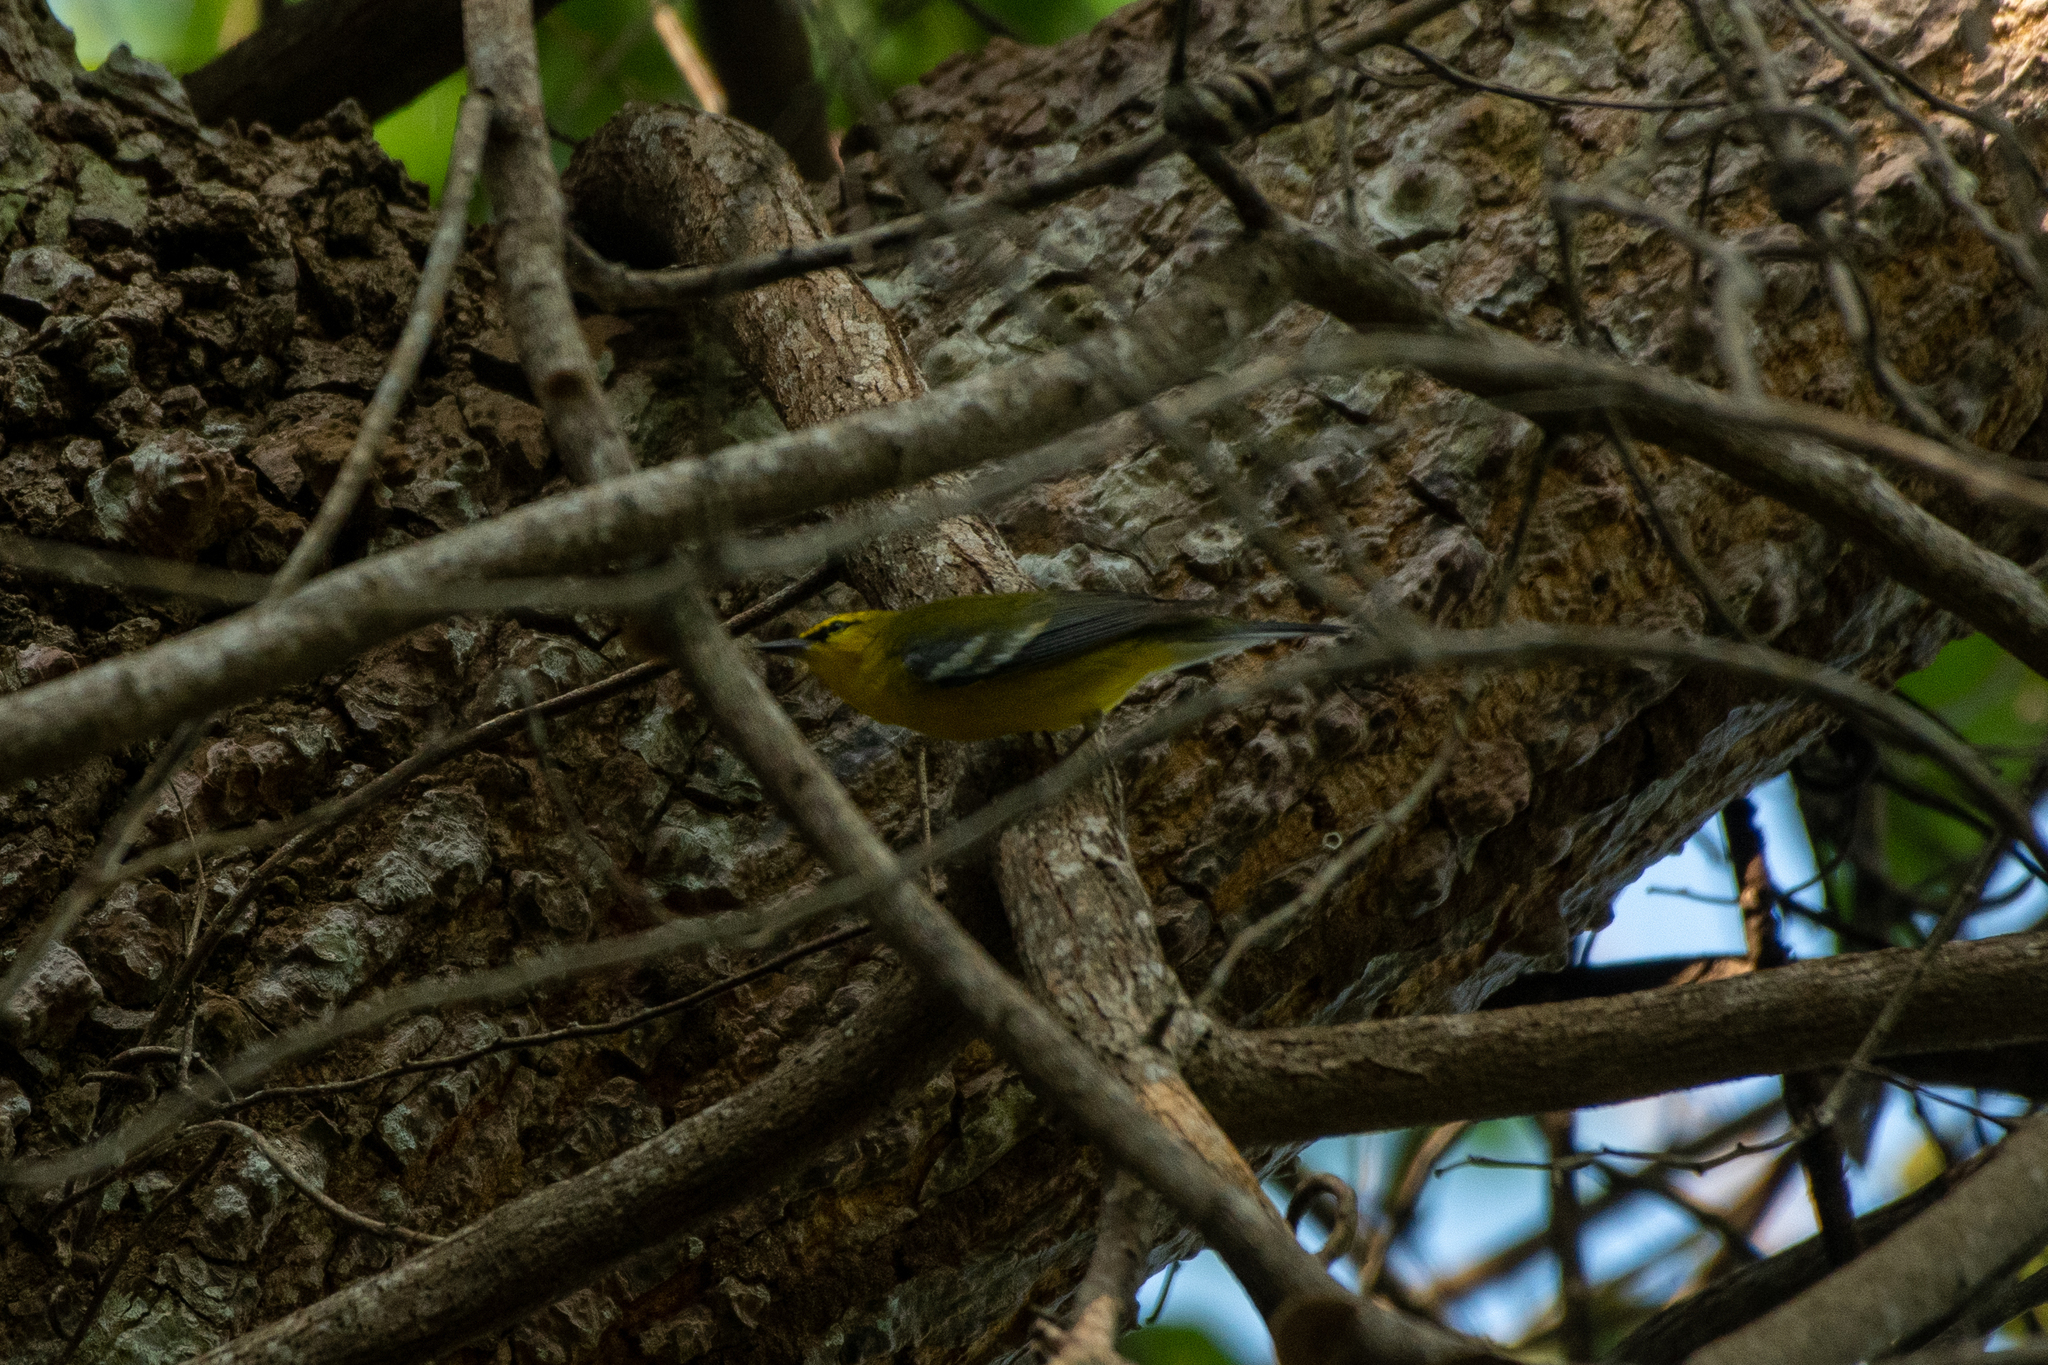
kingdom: Animalia
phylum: Chordata
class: Aves
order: Passeriformes
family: Parulidae
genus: Vermivora
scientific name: Vermivora cyanoptera
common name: Blue-winged warbler
